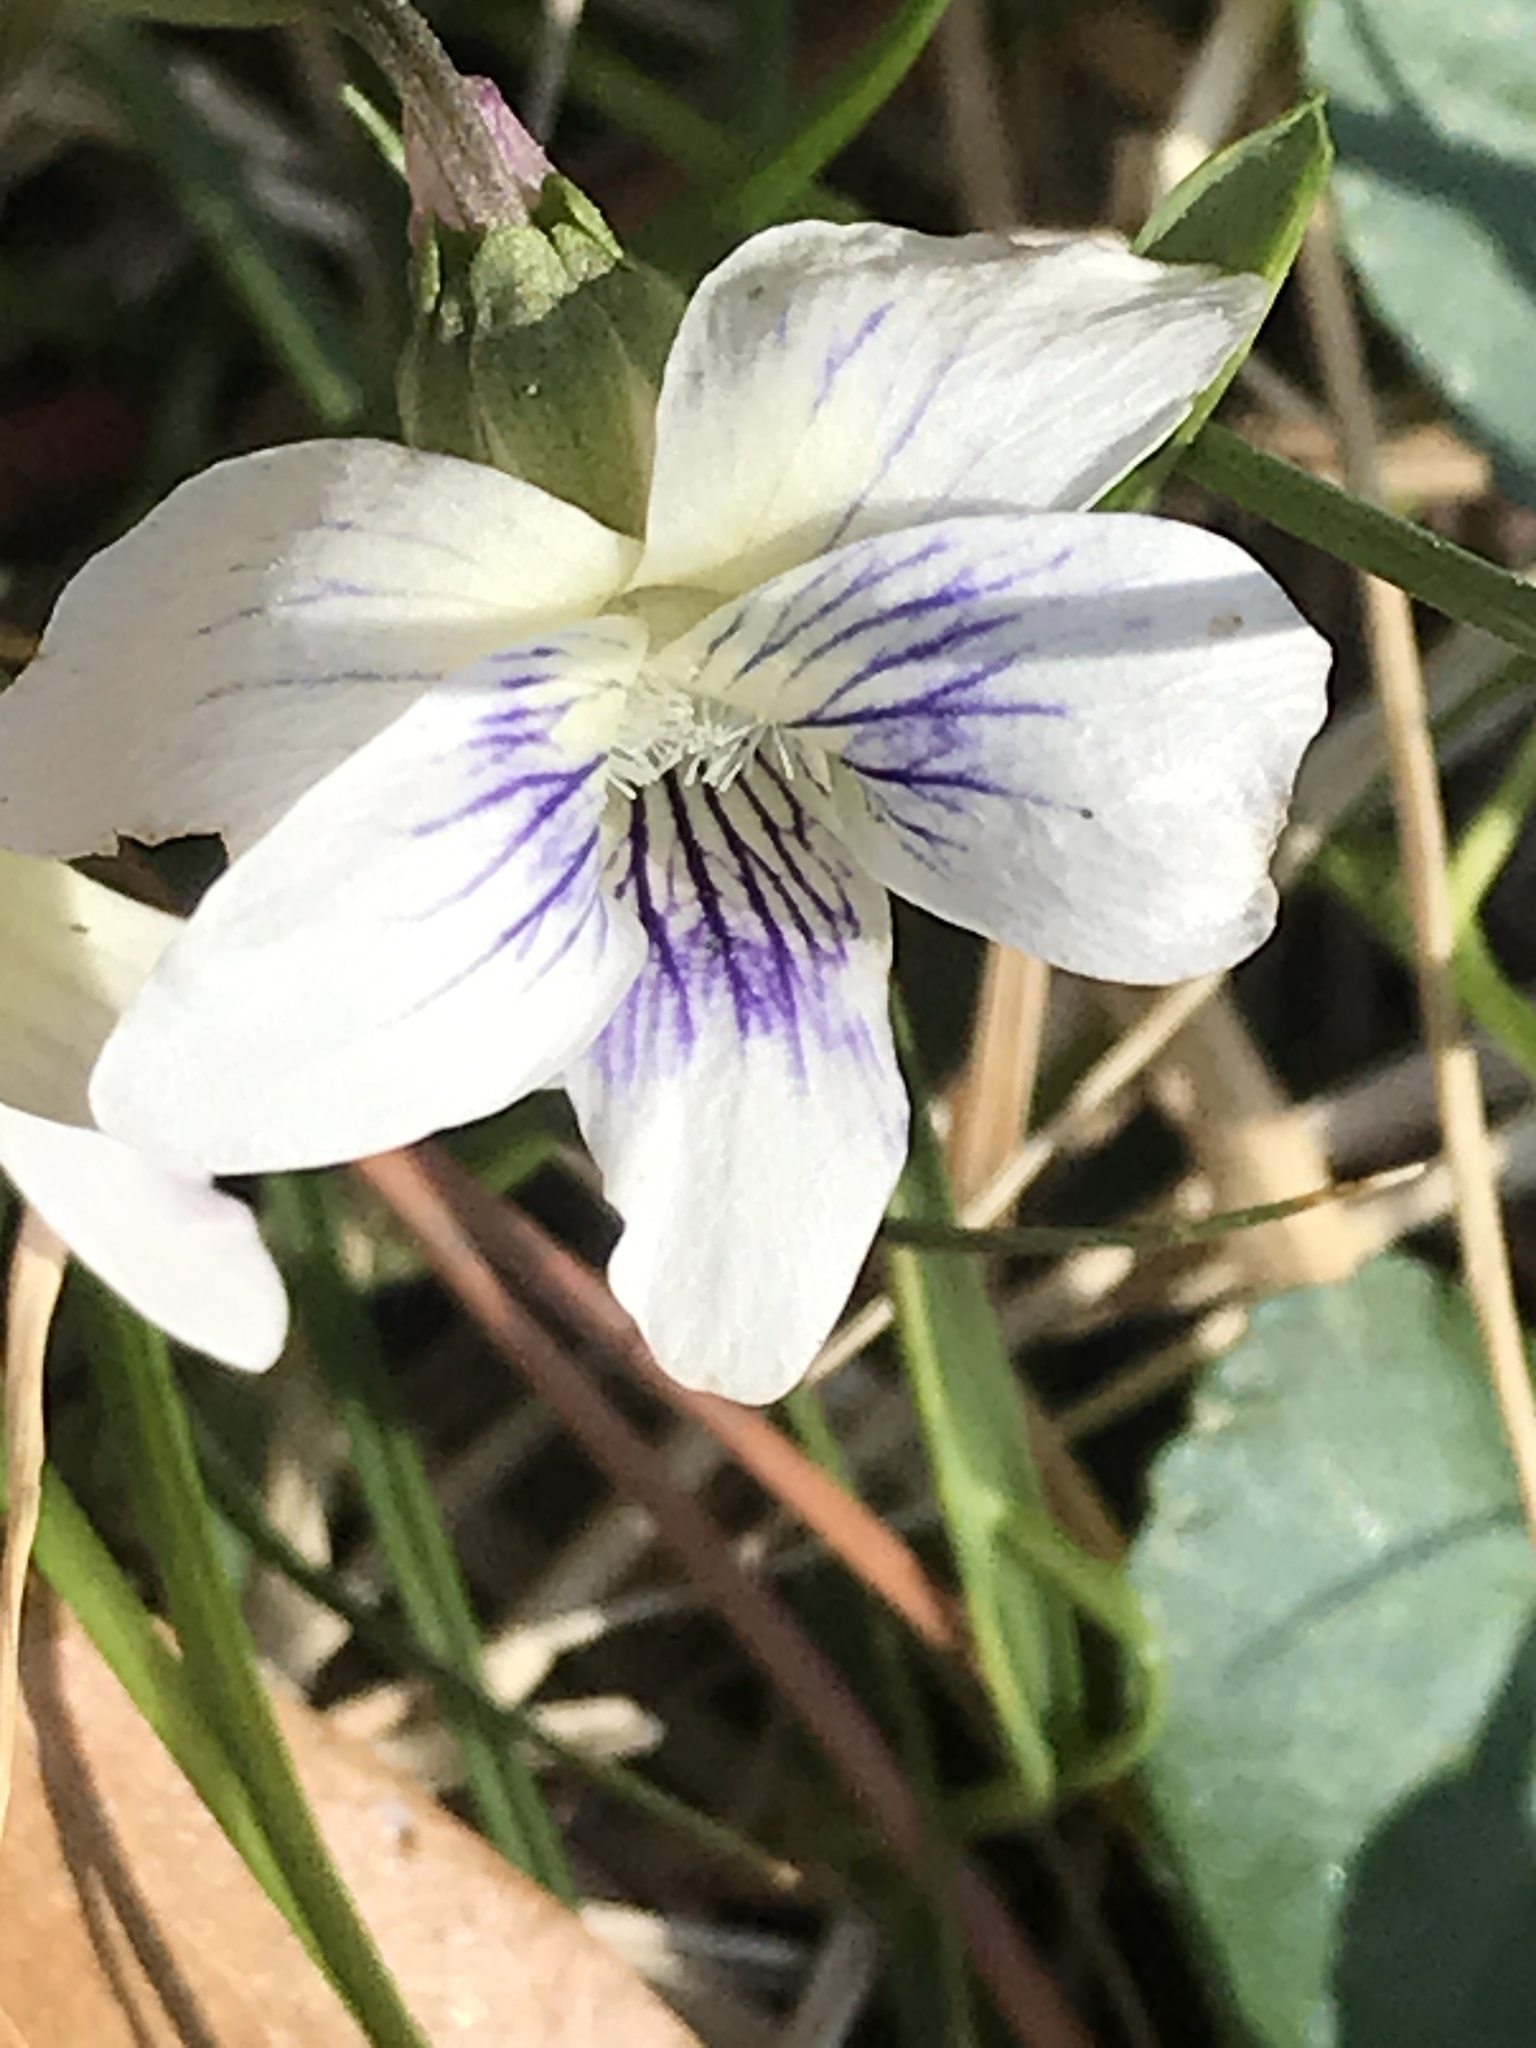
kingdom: Plantae
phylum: Tracheophyta
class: Magnoliopsida
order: Malpighiales
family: Violaceae
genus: Viola
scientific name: Viola sororia
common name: Dooryard violet
